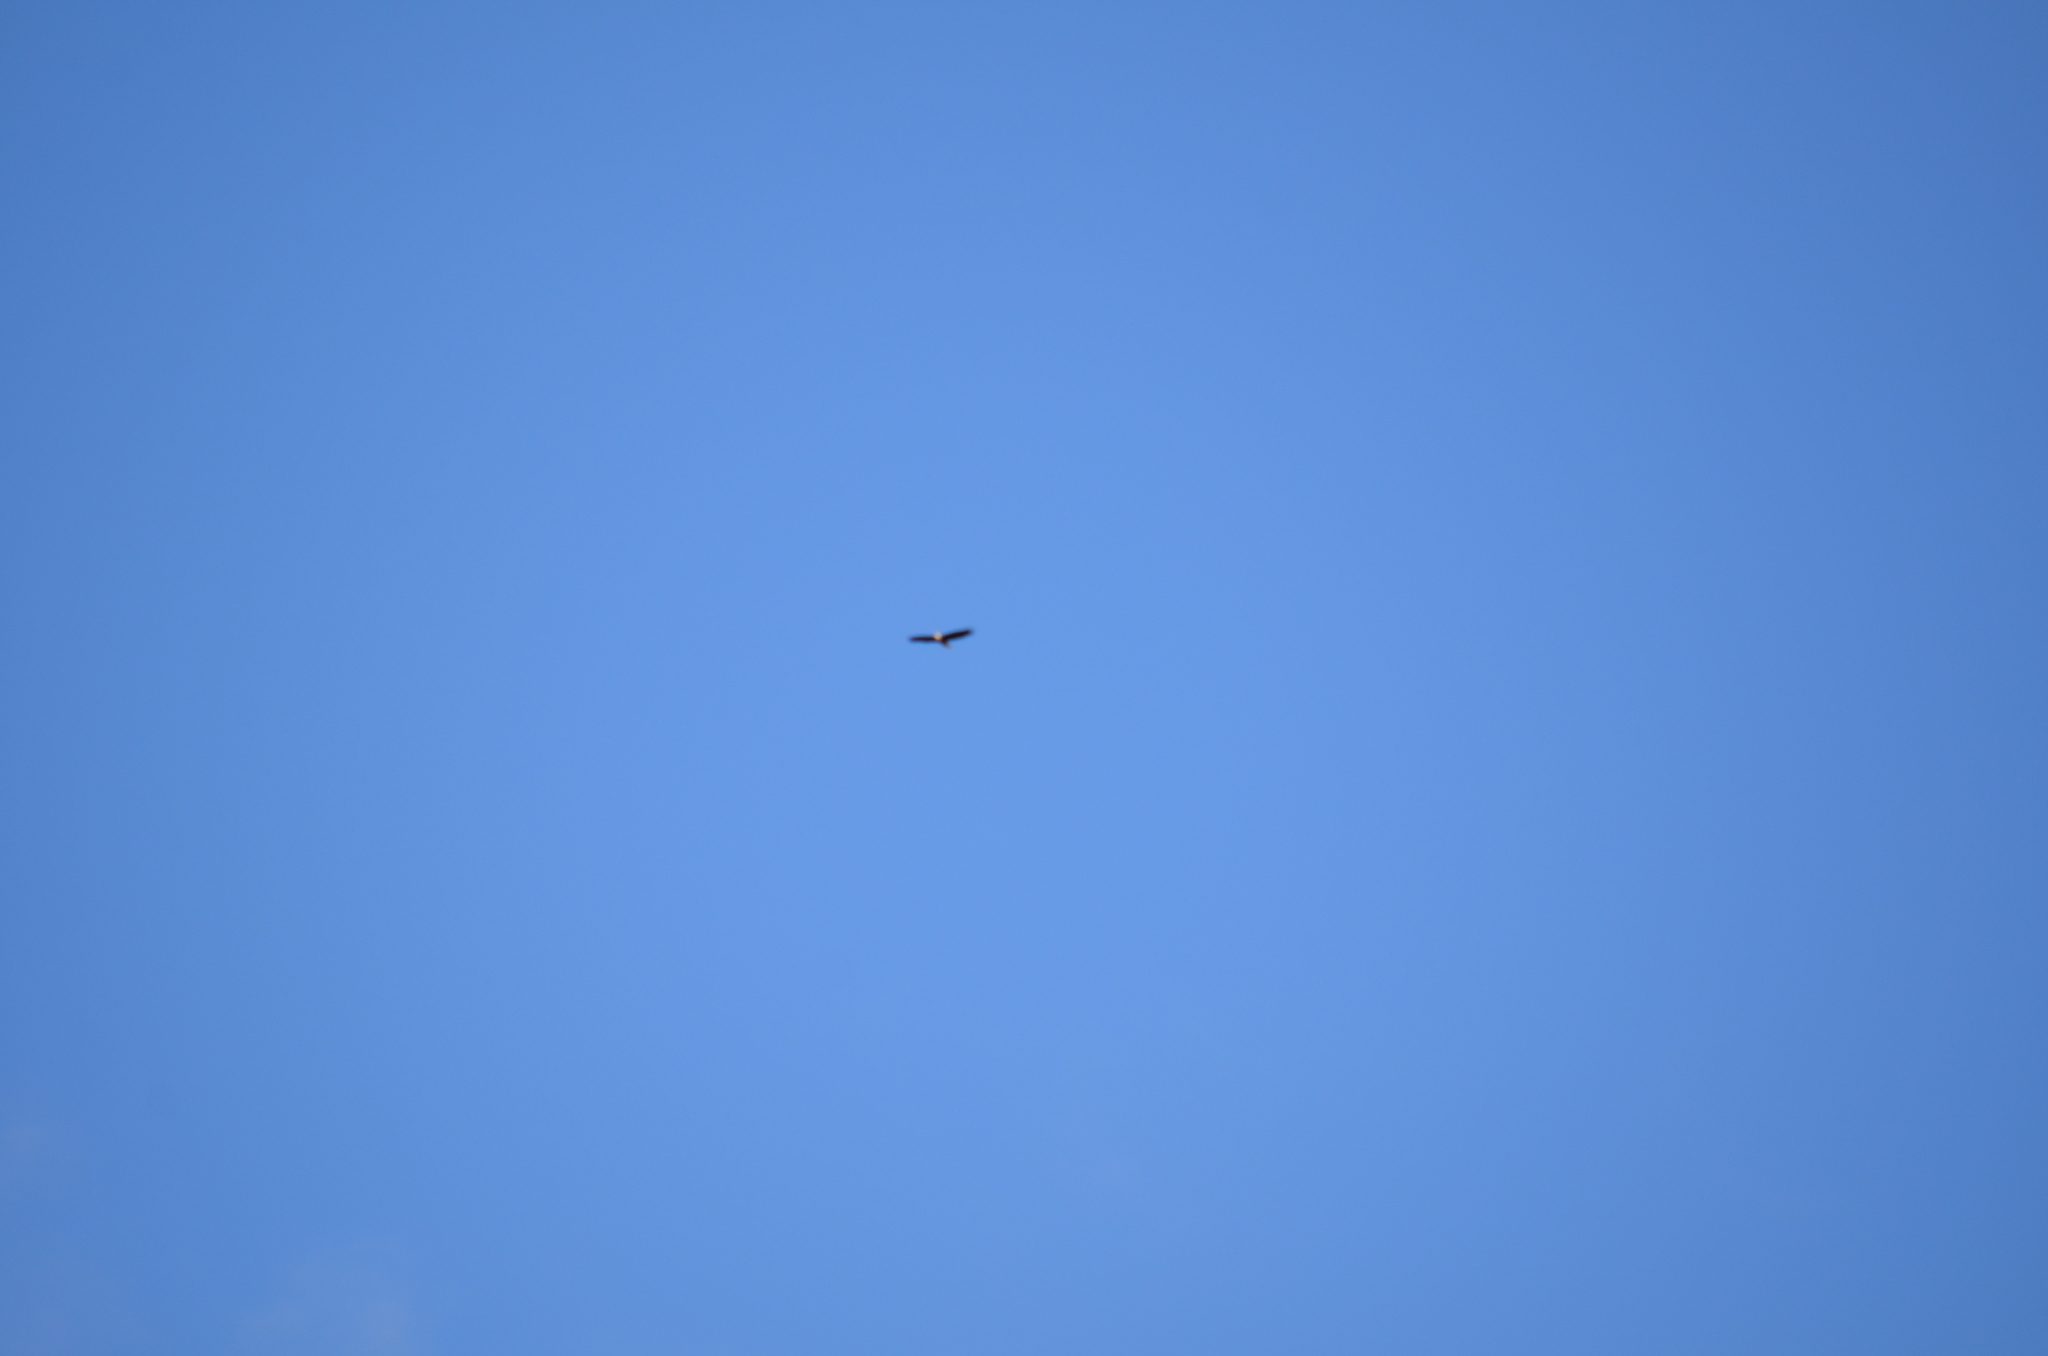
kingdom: Animalia
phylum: Chordata
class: Aves
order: Accipitriformes
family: Accipitridae
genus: Haliaeetus
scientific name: Haliaeetus leucocephalus
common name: Bald eagle
